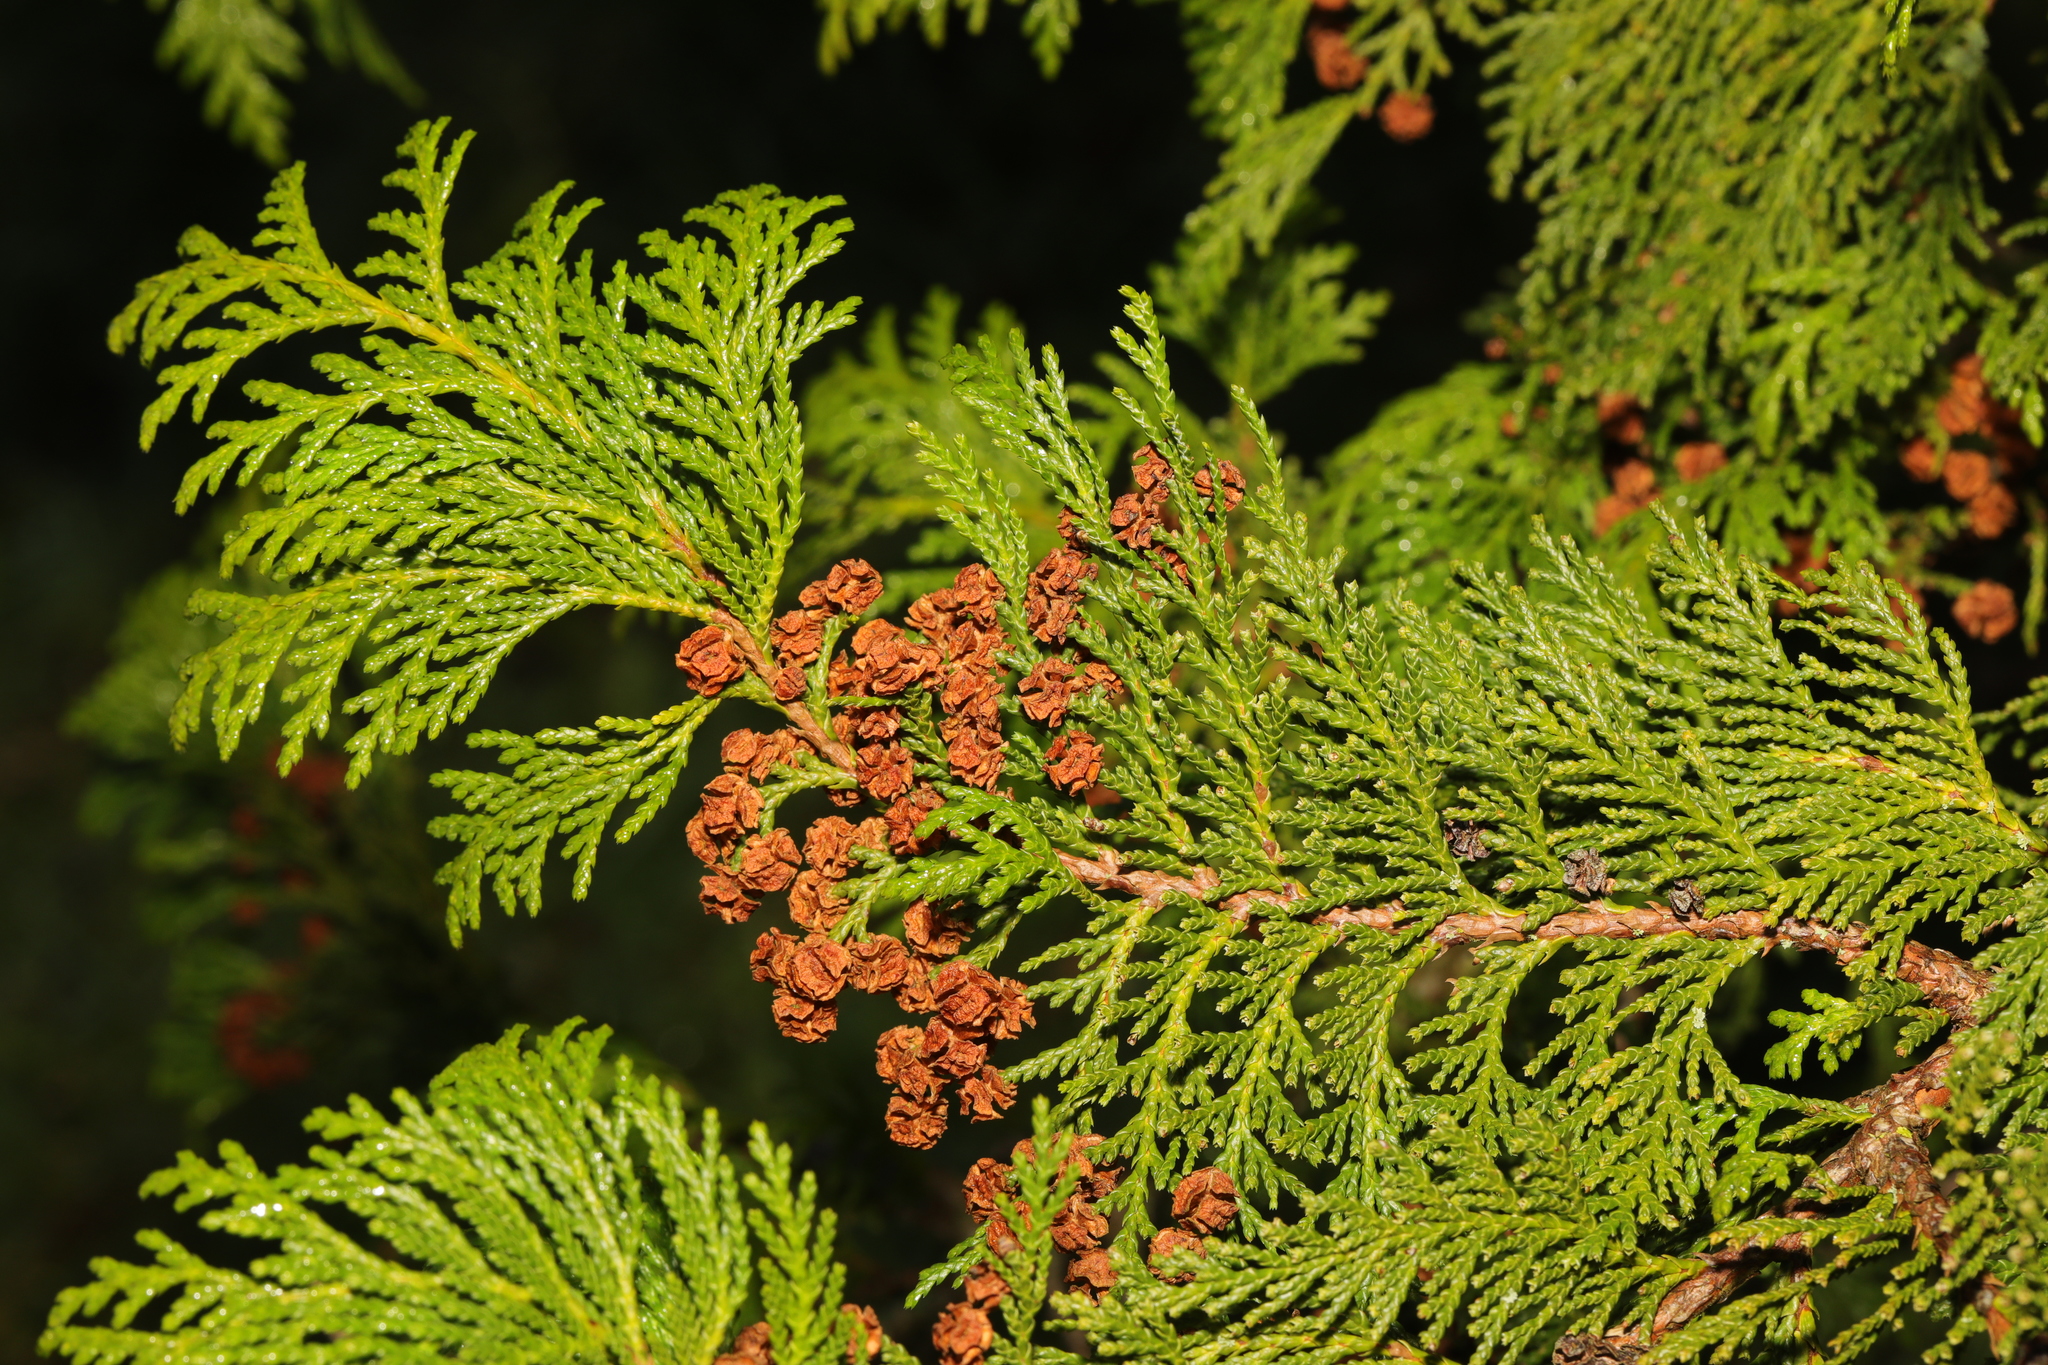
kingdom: Plantae
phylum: Tracheophyta
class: Pinopsida
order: Pinales
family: Cupressaceae
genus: Thuja
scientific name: Thuja plicata
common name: Western red-cedar
